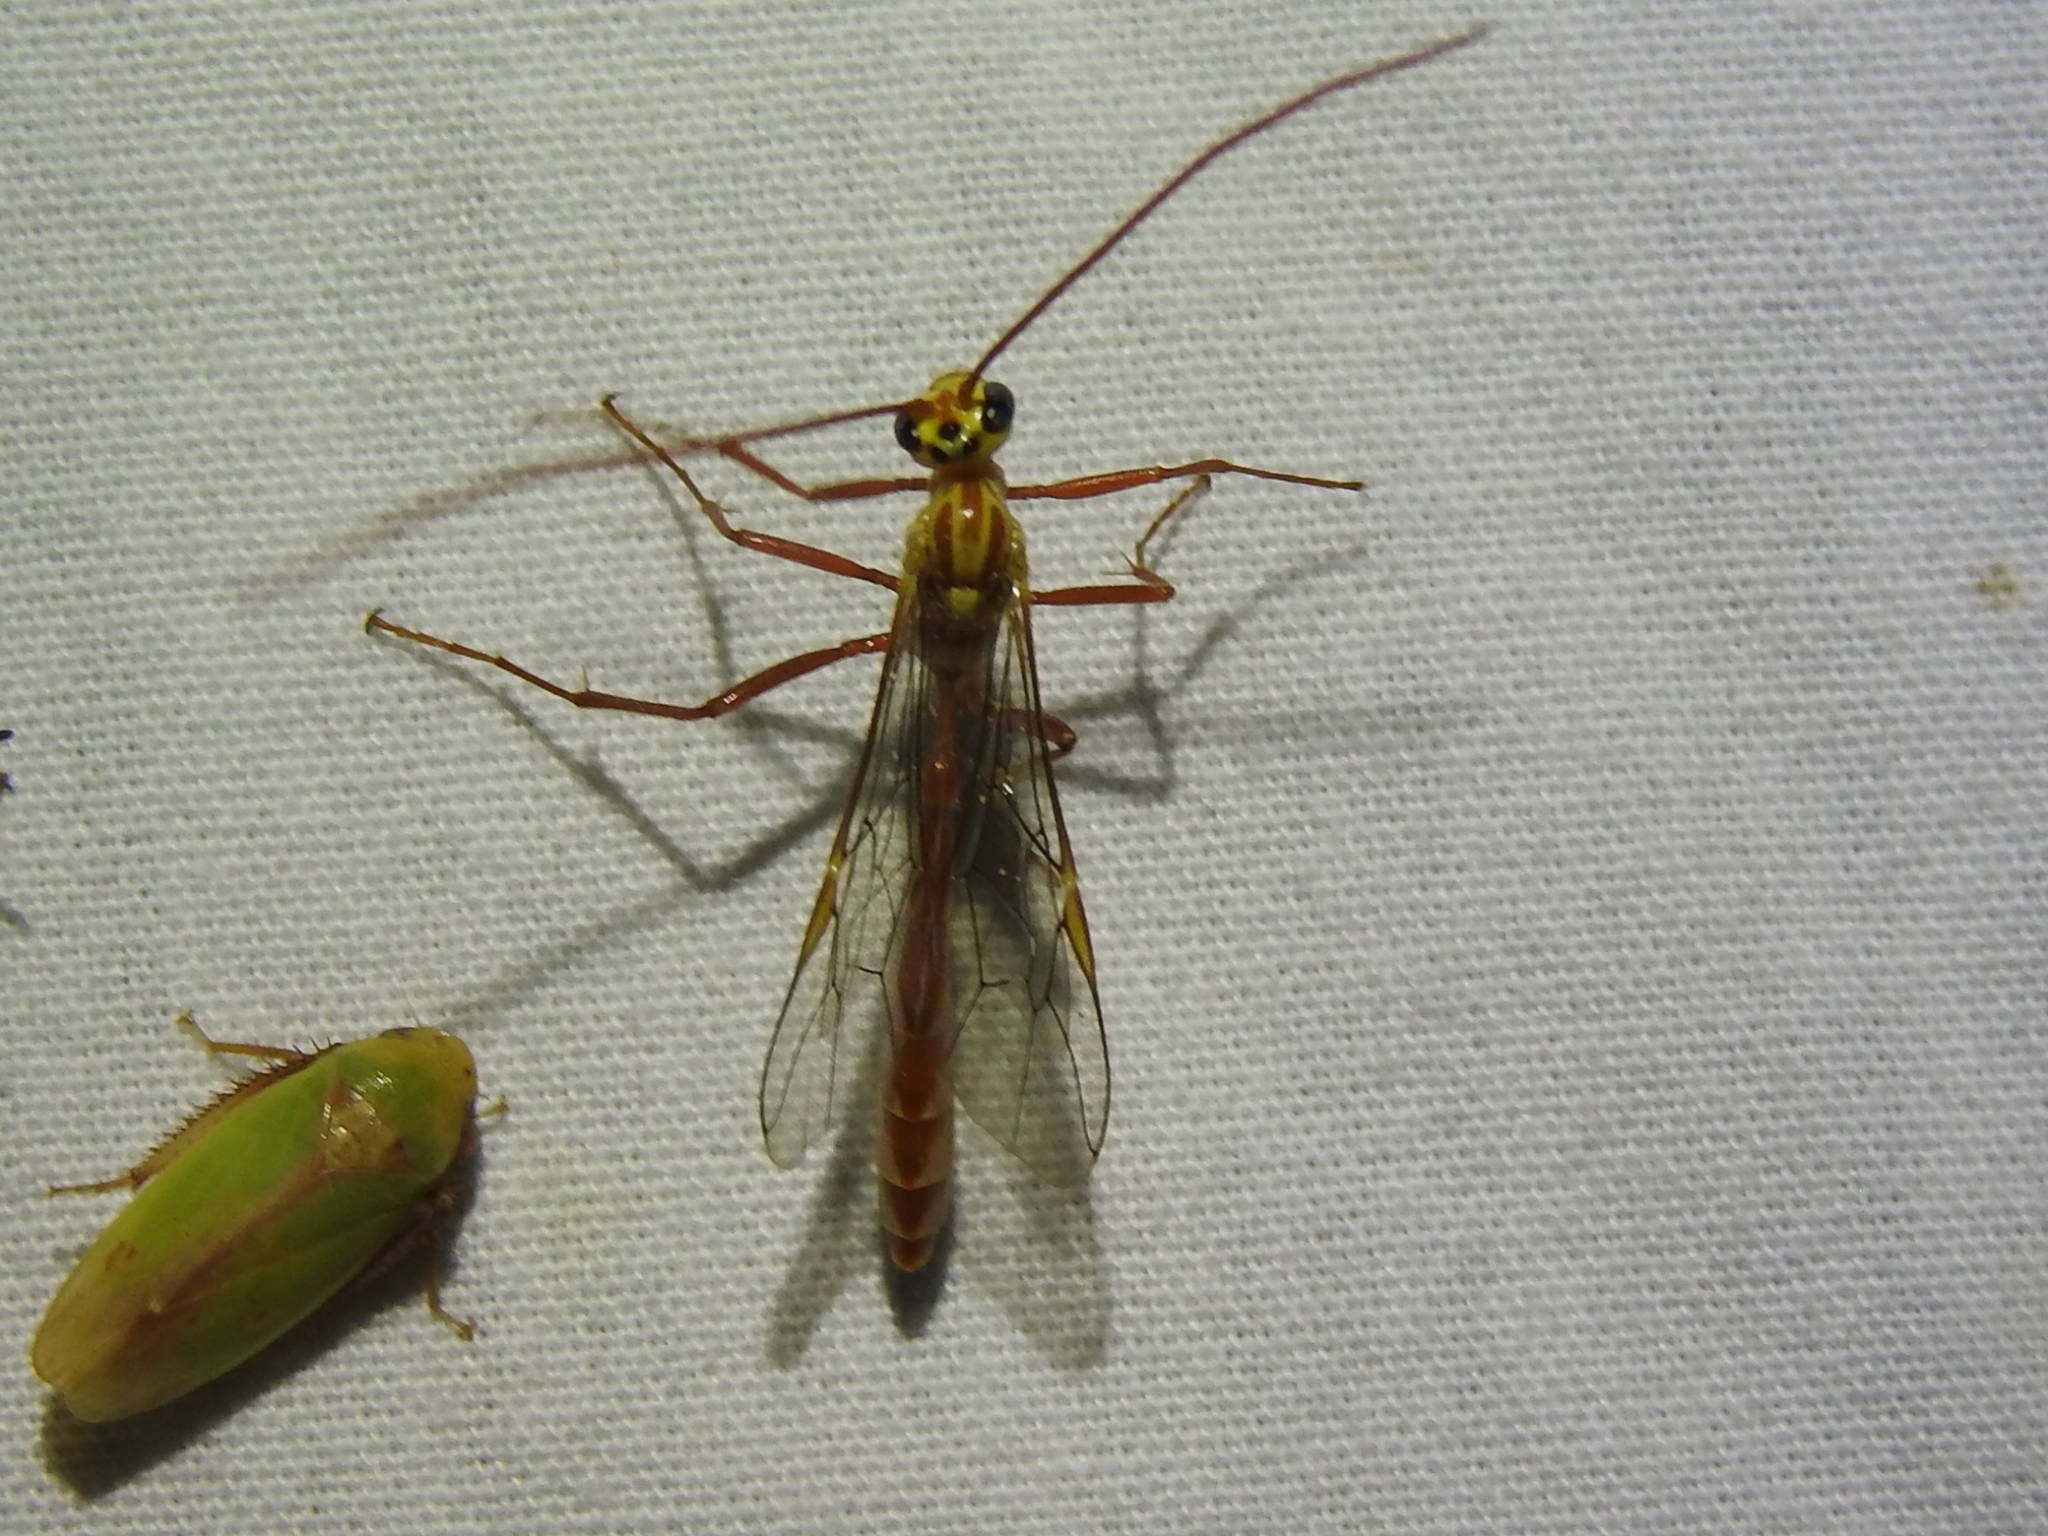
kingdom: Animalia
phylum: Arthropoda
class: Insecta
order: Hymenoptera
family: Ichneumonidae
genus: Eremotylus
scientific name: Eremotylus
